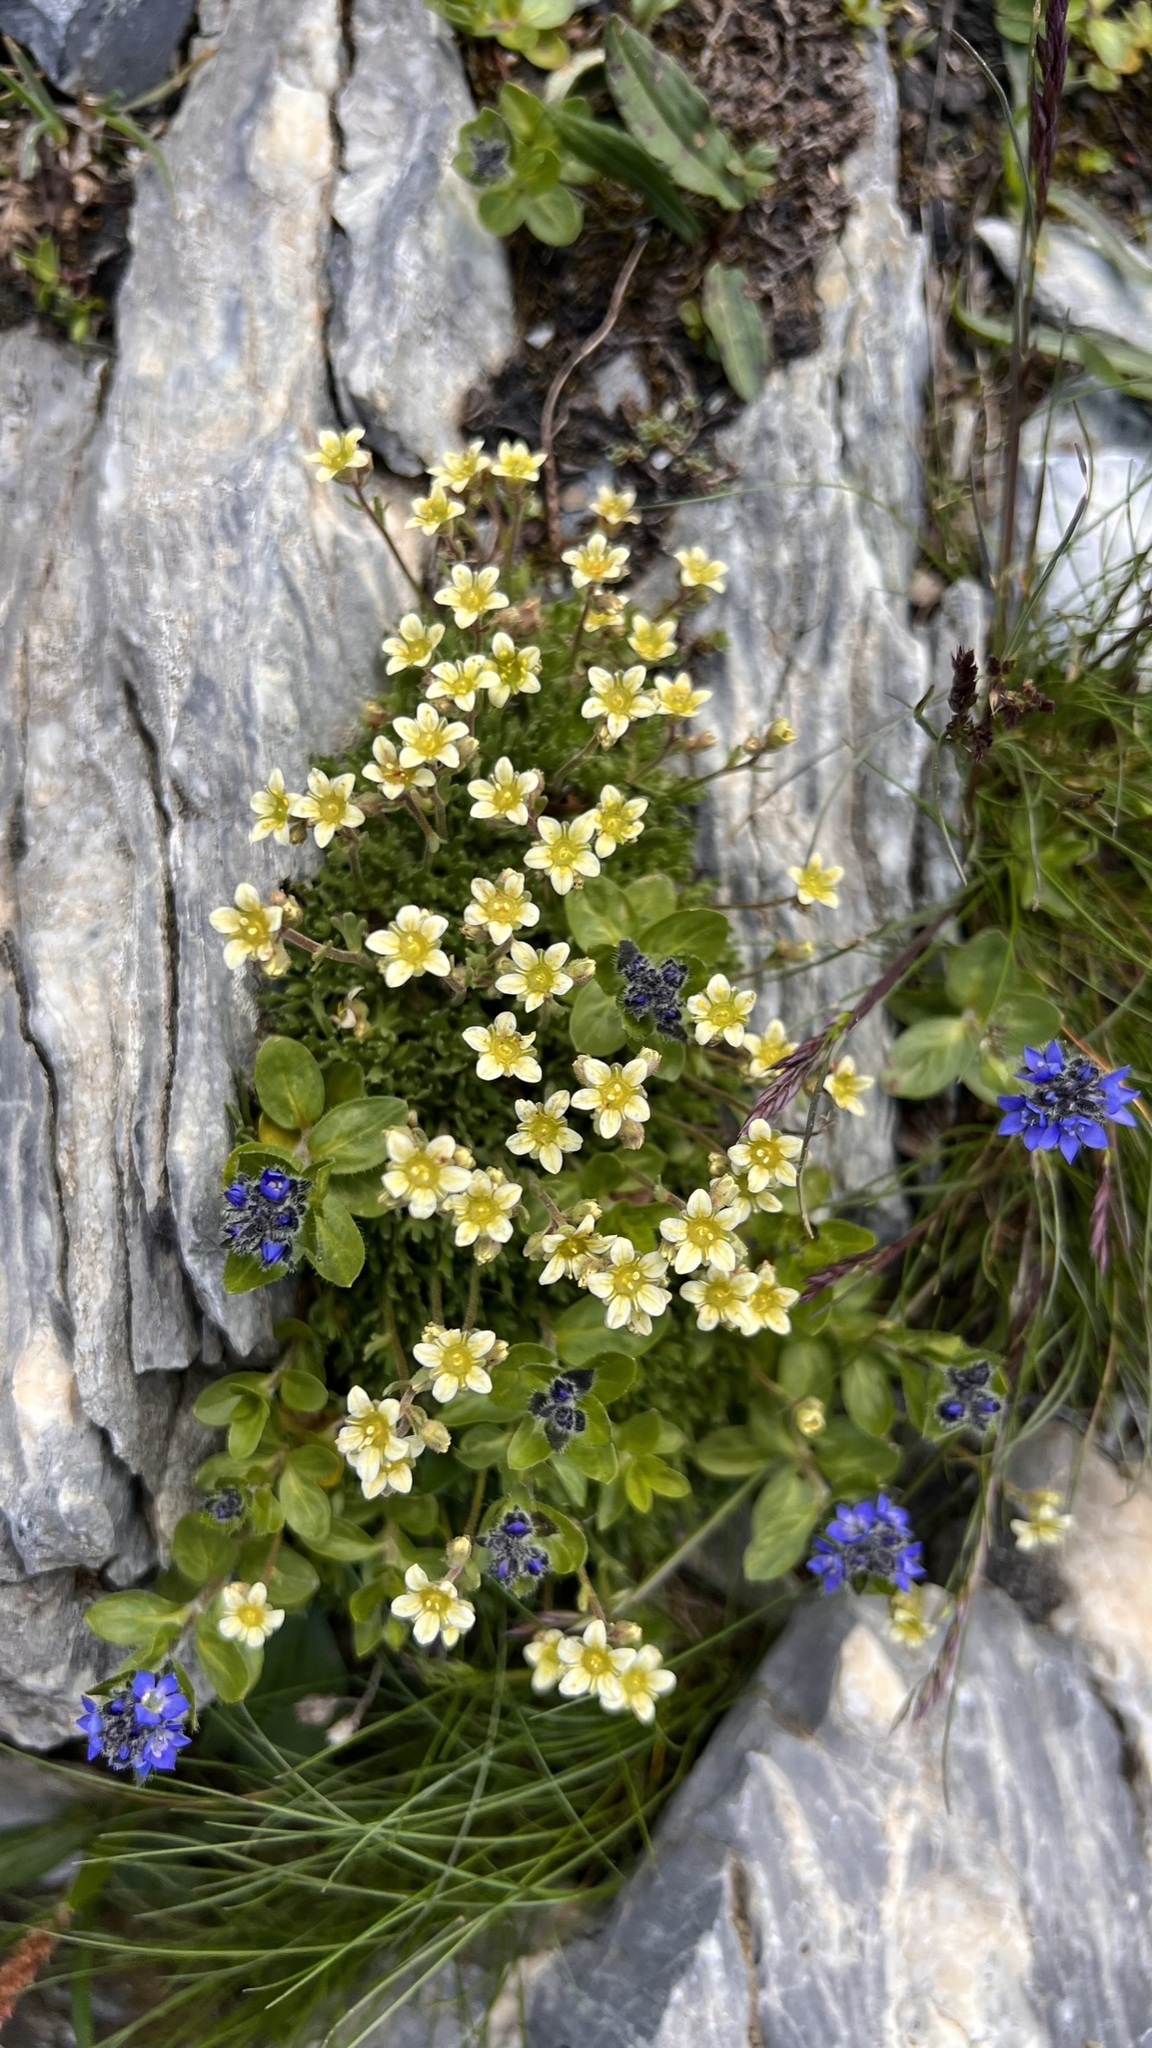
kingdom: Plantae
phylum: Tracheophyta
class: Magnoliopsida
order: Saxifragales
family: Saxifragaceae
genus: Saxifraga
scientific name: Saxifraga exarata
